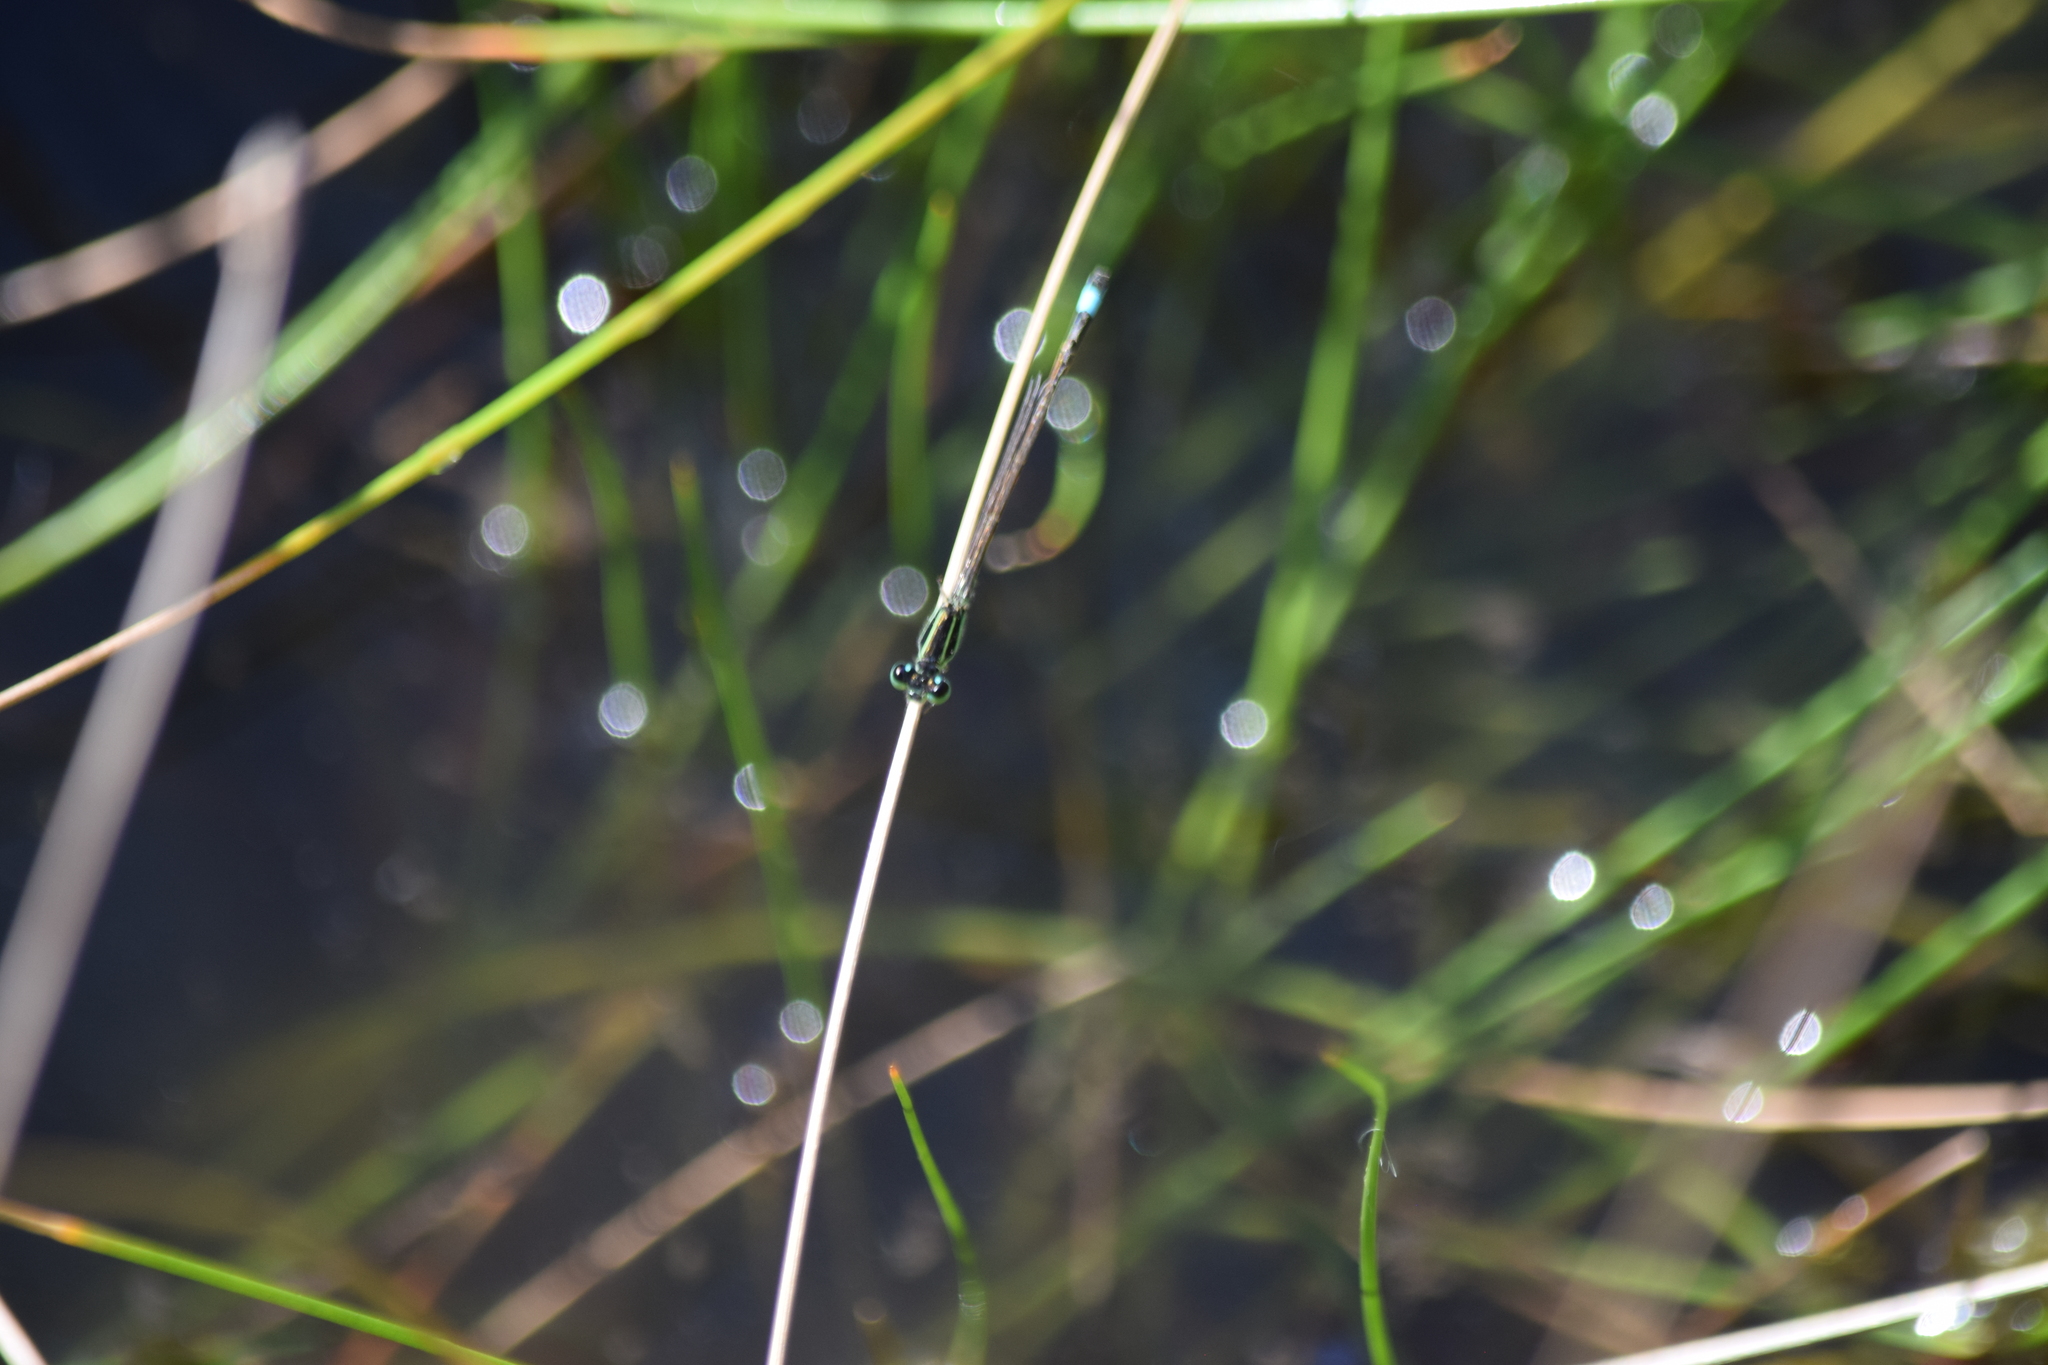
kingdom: Animalia
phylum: Arthropoda
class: Insecta
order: Odonata
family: Coenagrionidae
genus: Ischnura
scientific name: Ischnura ramburii
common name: Rambur's forktail
